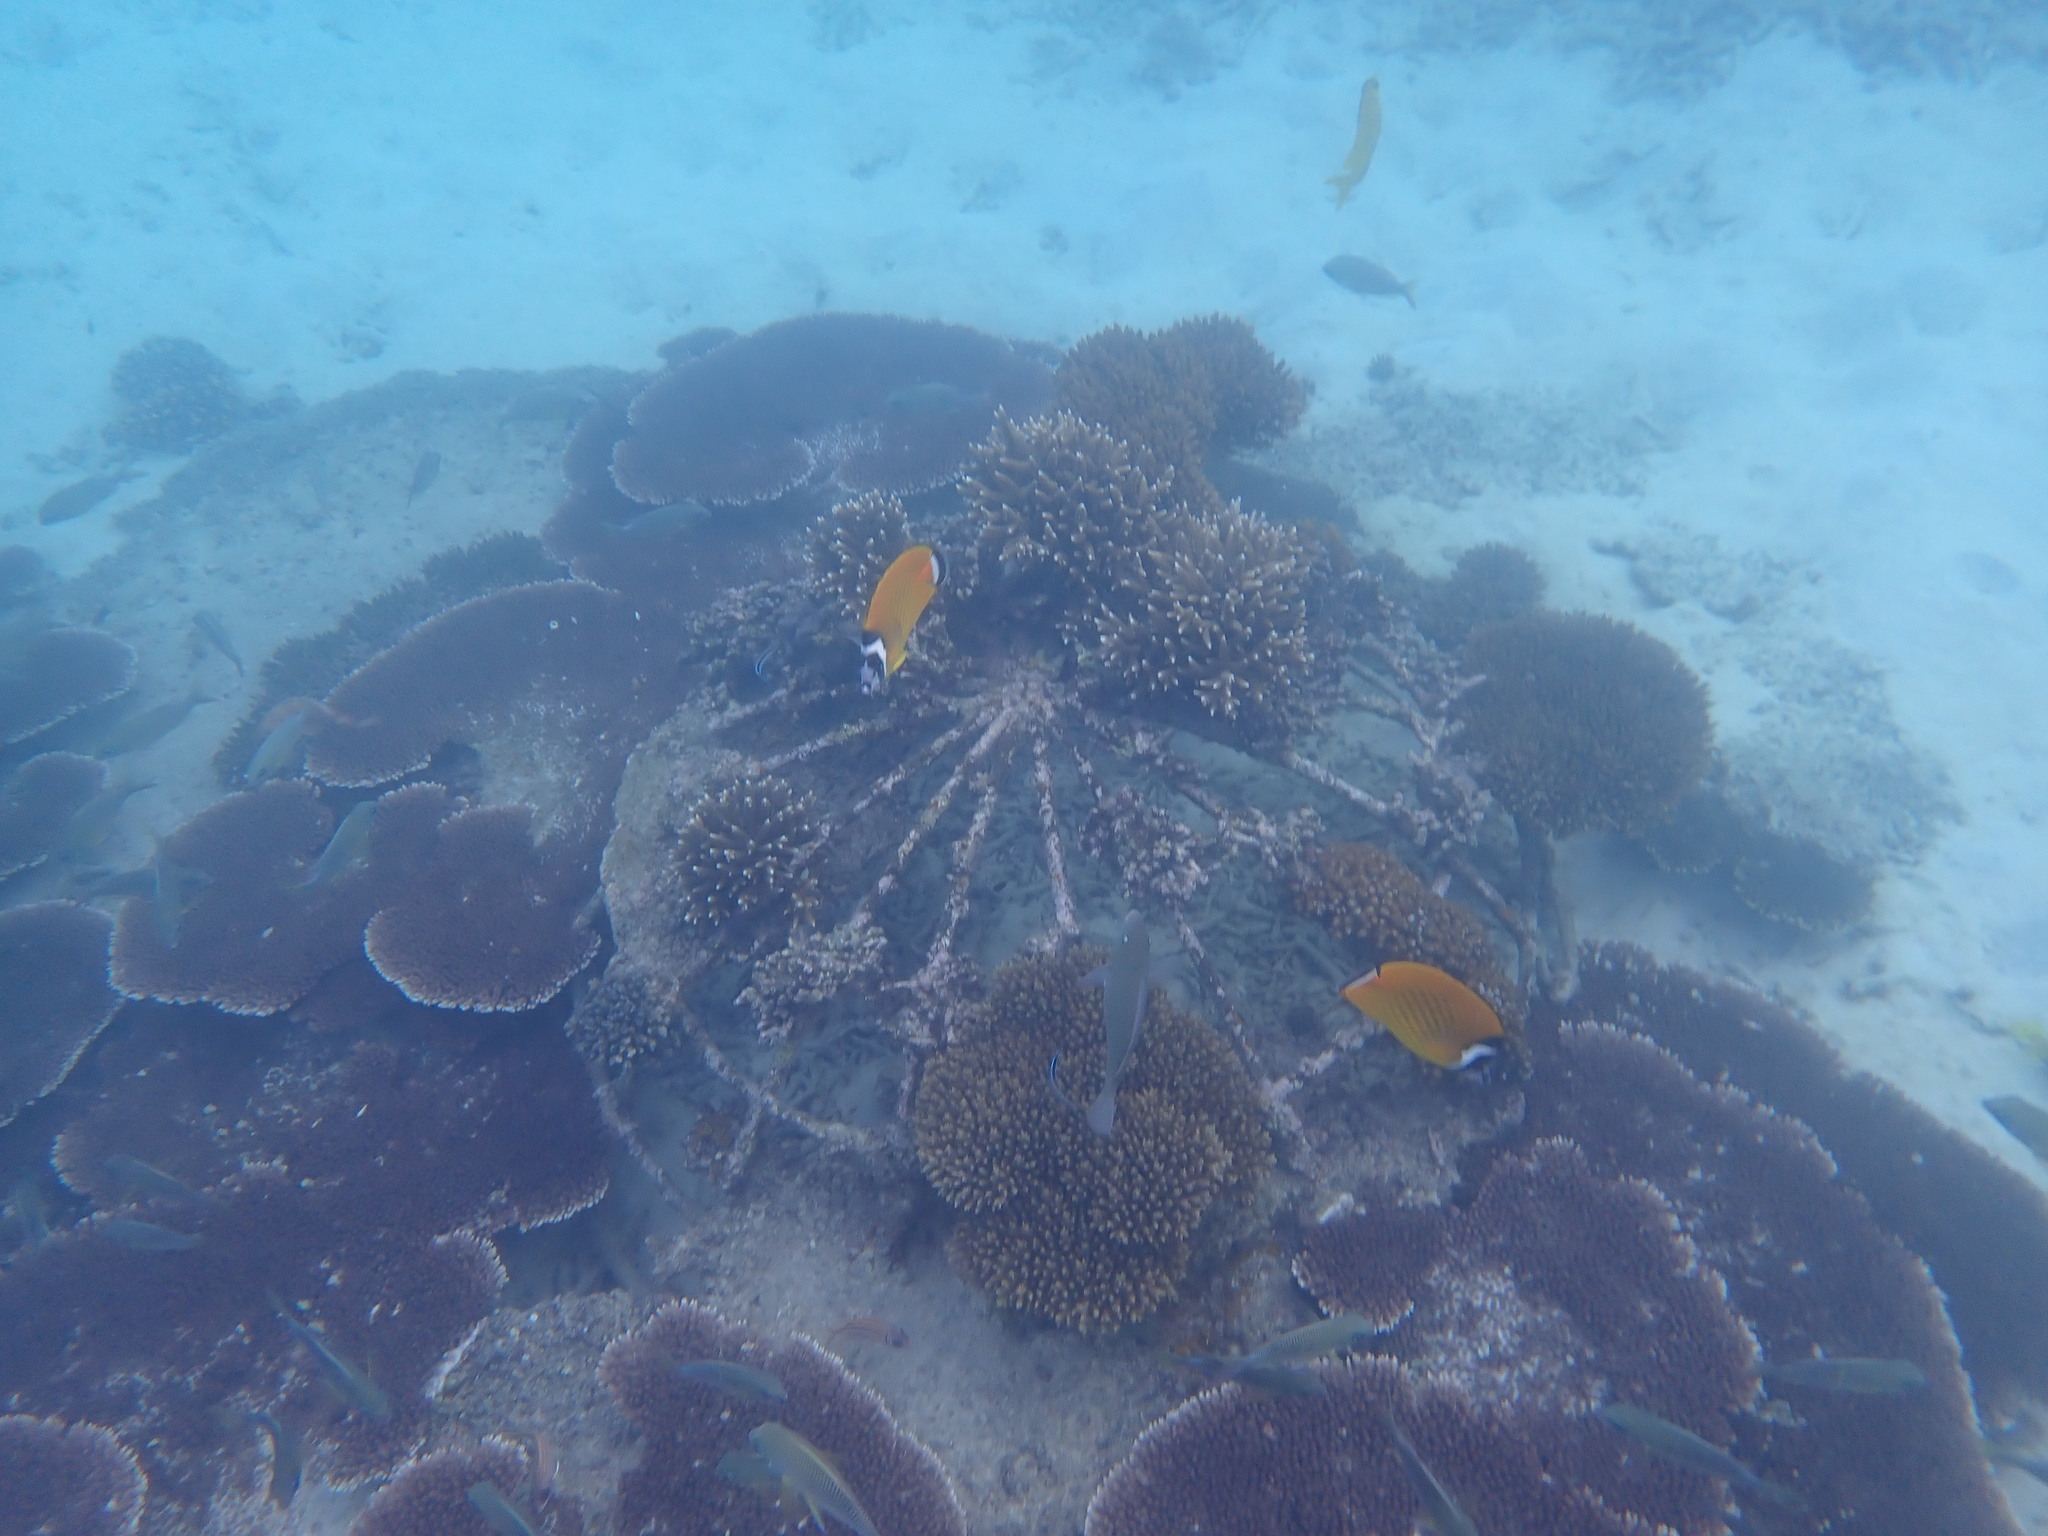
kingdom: Animalia
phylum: Chordata
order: Perciformes
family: Chaetodontidae
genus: Chaetodon
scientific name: Chaetodon wiebeli
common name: Butterflyfish
